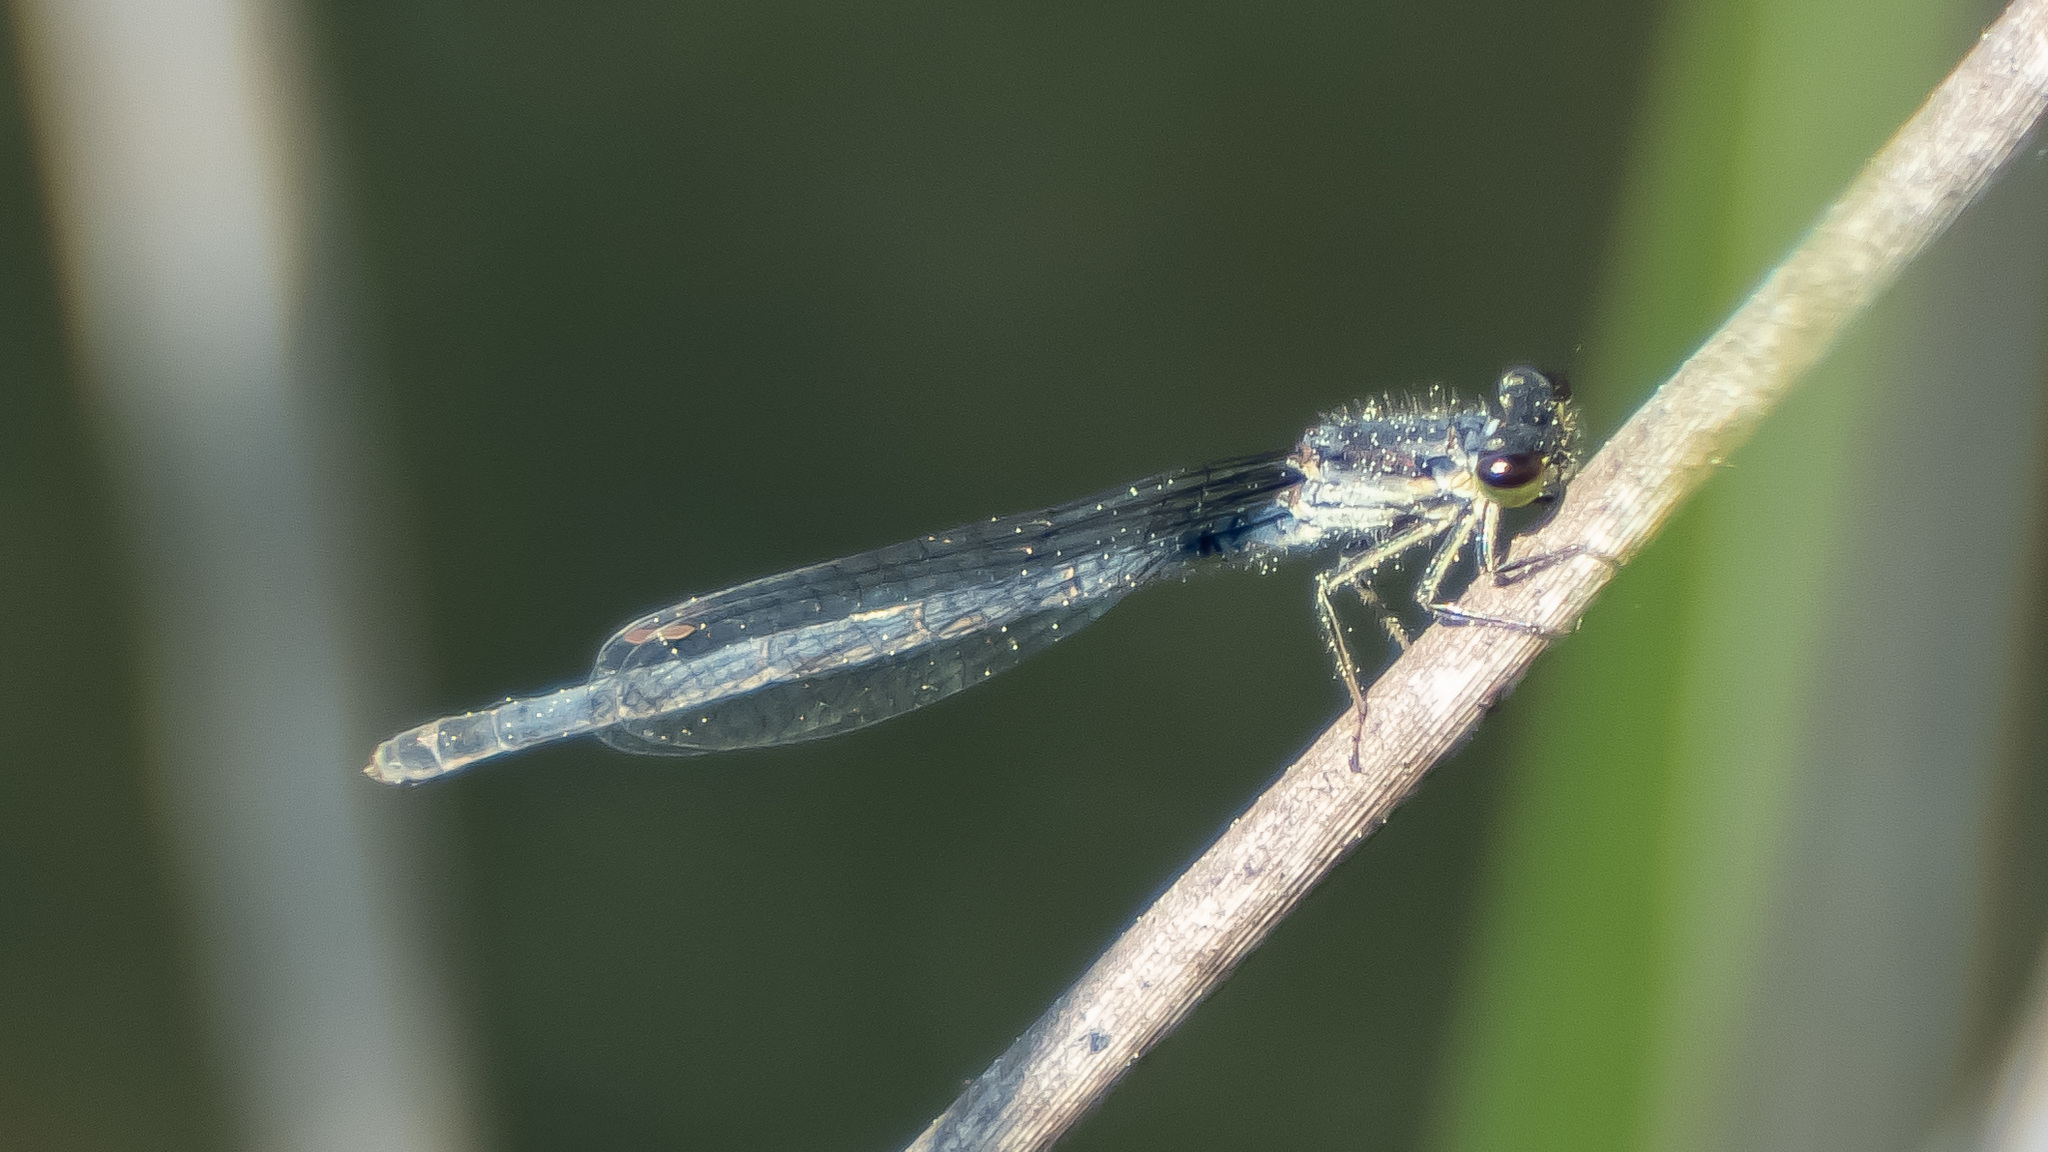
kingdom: Animalia
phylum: Arthropoda
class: Insecta
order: Odonata
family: Coenagrionidae
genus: Ischnura
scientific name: Ischnura posita
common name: Fragile forktail
